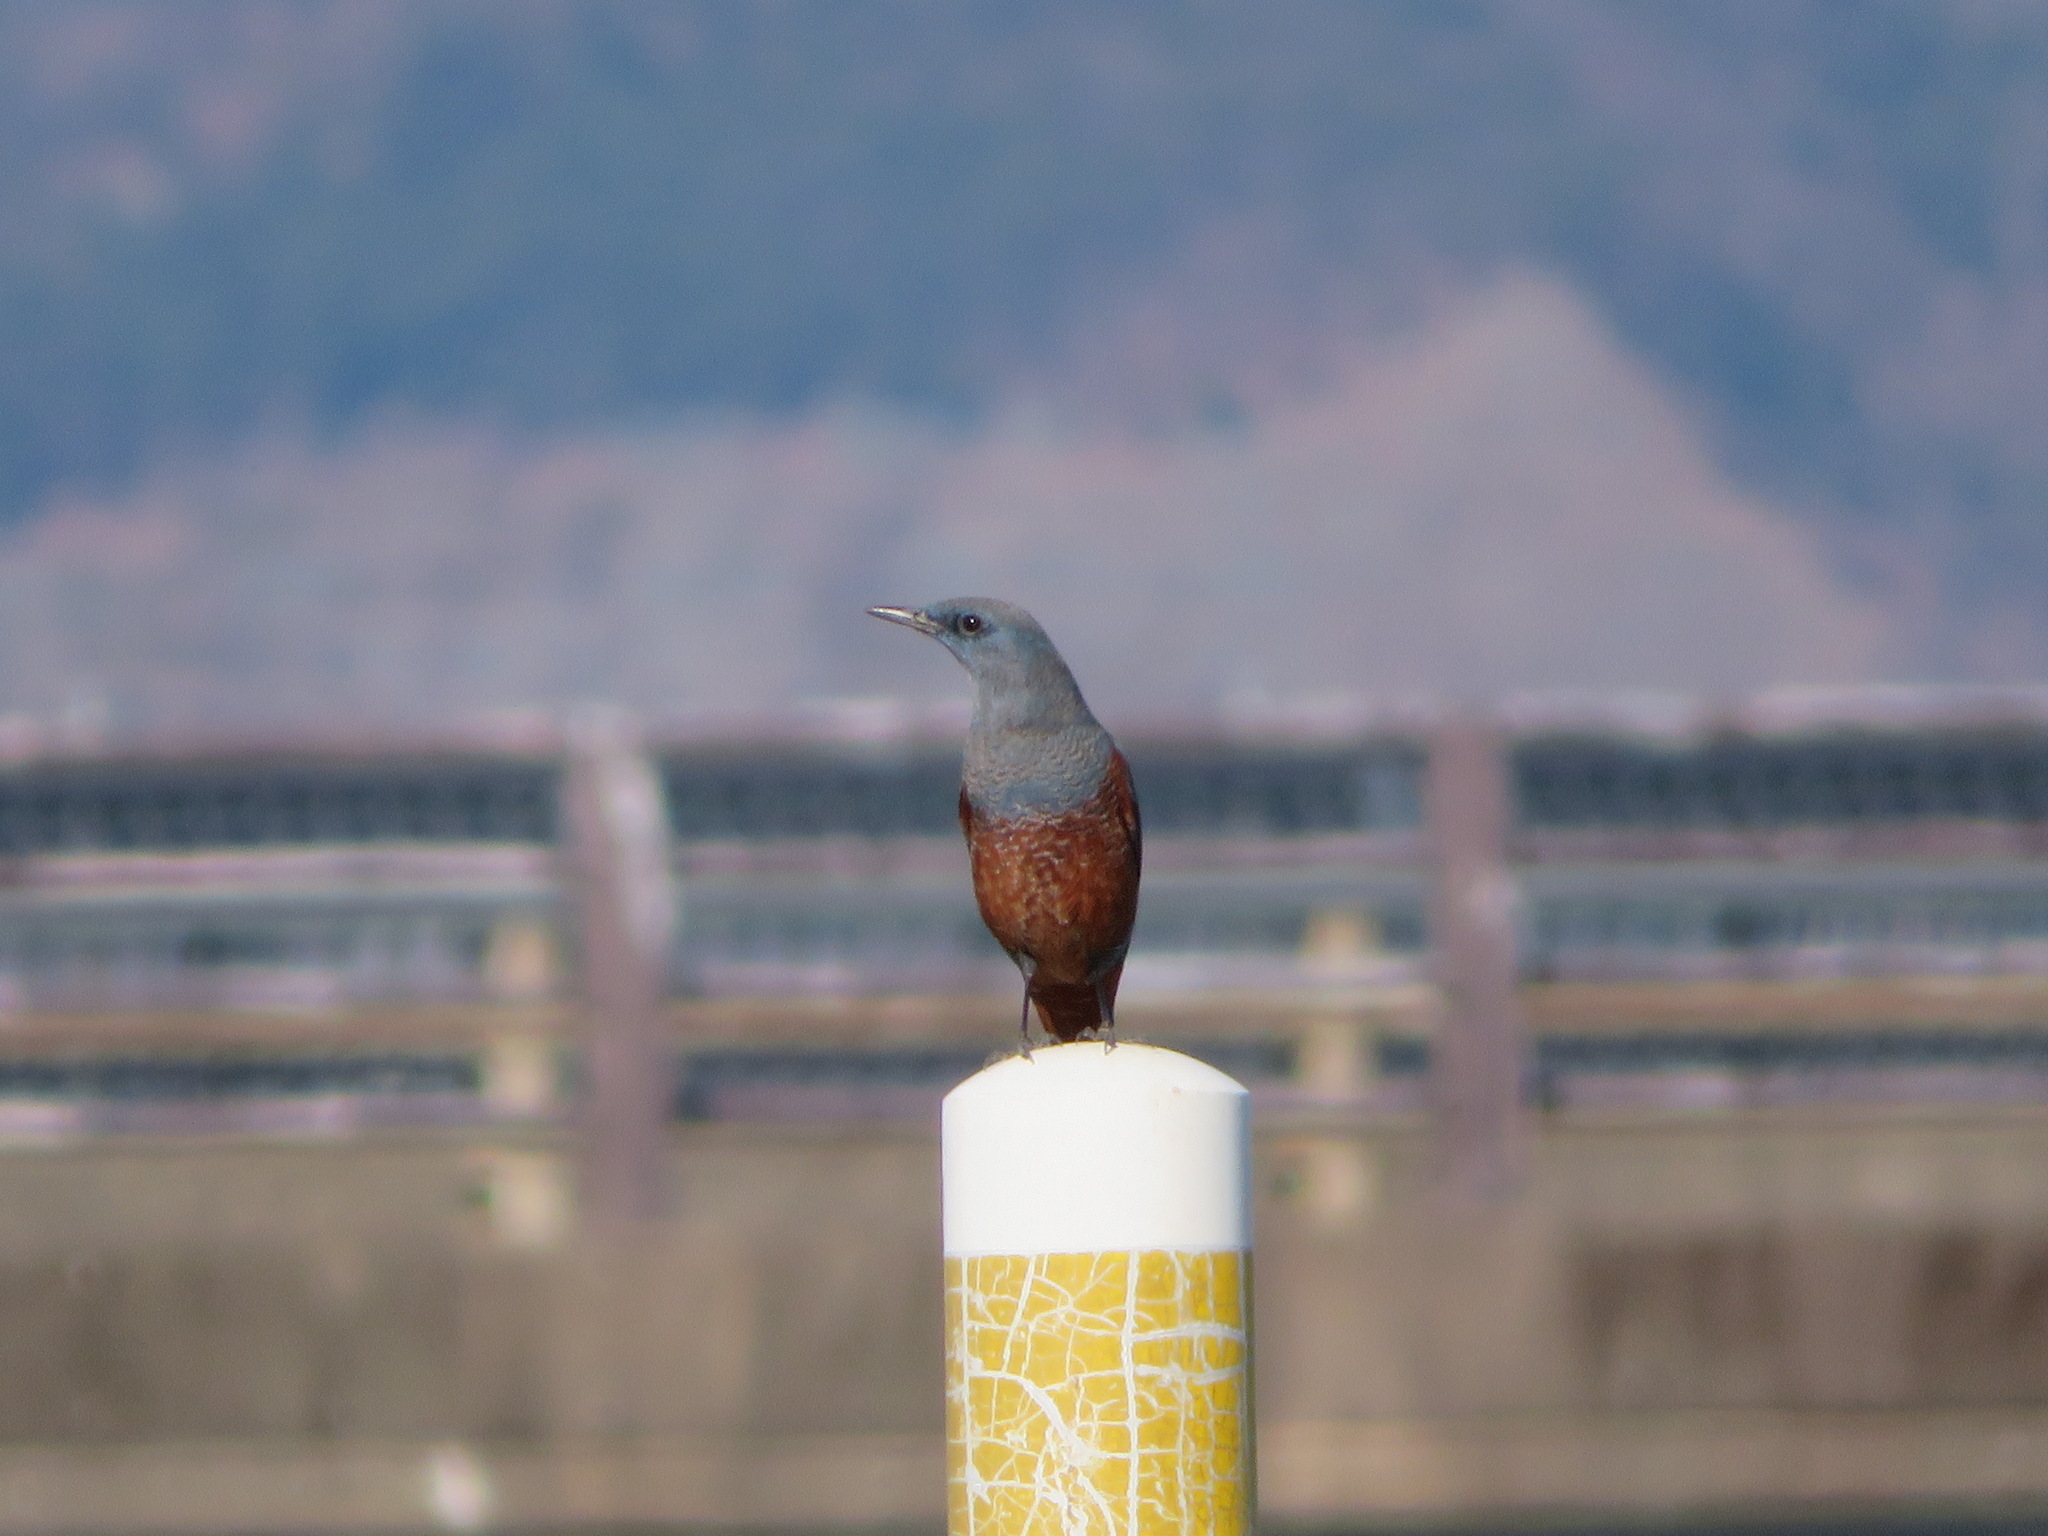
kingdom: Animalia
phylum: Chordata
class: Aves
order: Passeriformes
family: Muscicapidae
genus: Monticola
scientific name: Monticola solitarius
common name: Blue rock thrush
